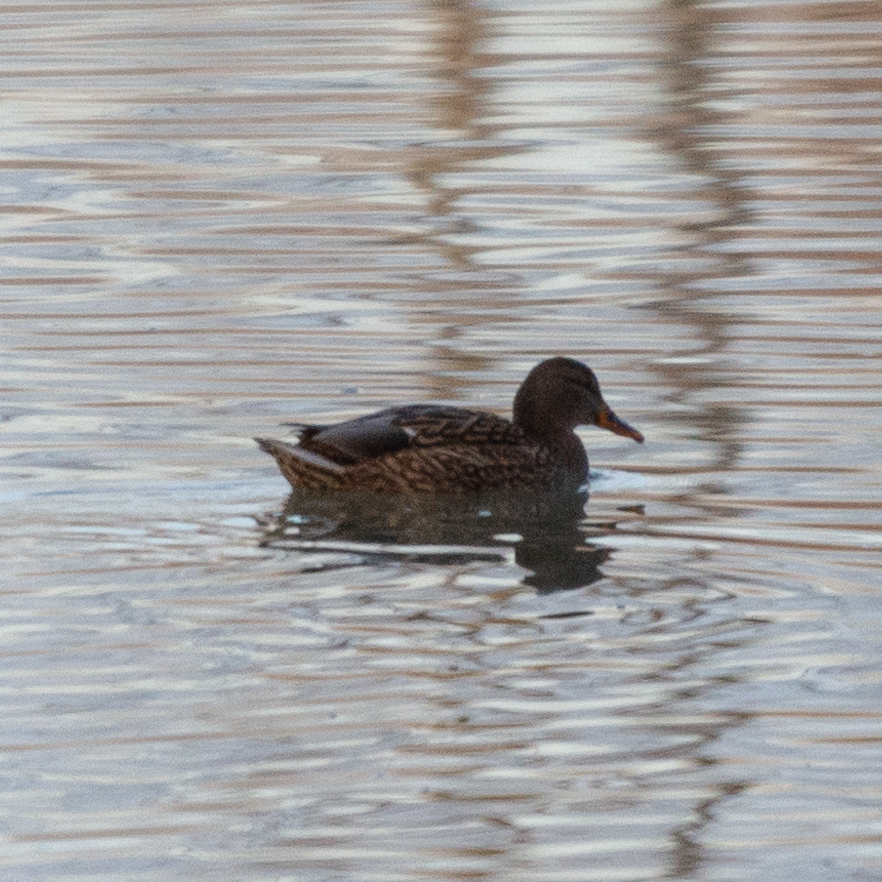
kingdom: Animalia
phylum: Chordata
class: Aves
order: Anseriformes
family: Anatidae
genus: Anas
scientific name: Anas platyrhynchos
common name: Mallard
